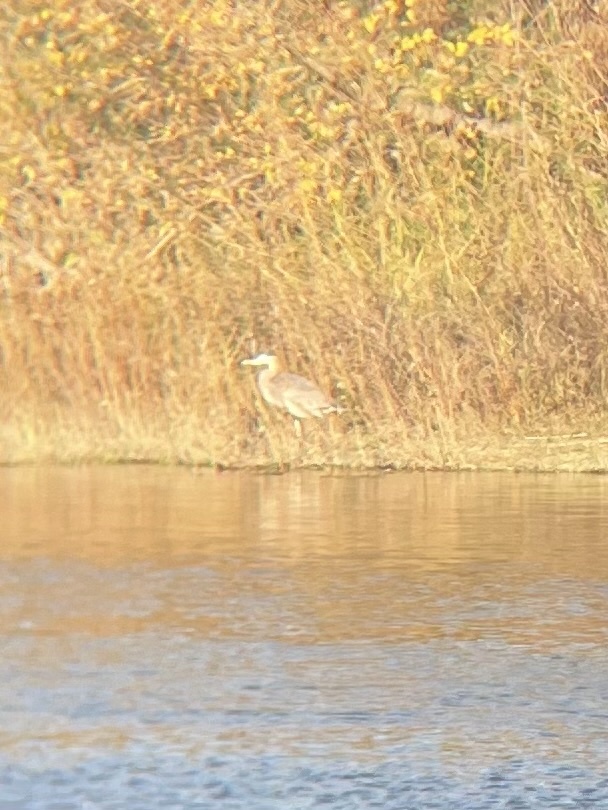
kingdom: Animalia
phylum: Chordata
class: Aves
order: Pelecaniformes
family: Ardeidae
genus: Ardea
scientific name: Ardea herodias
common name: Great blue heron
